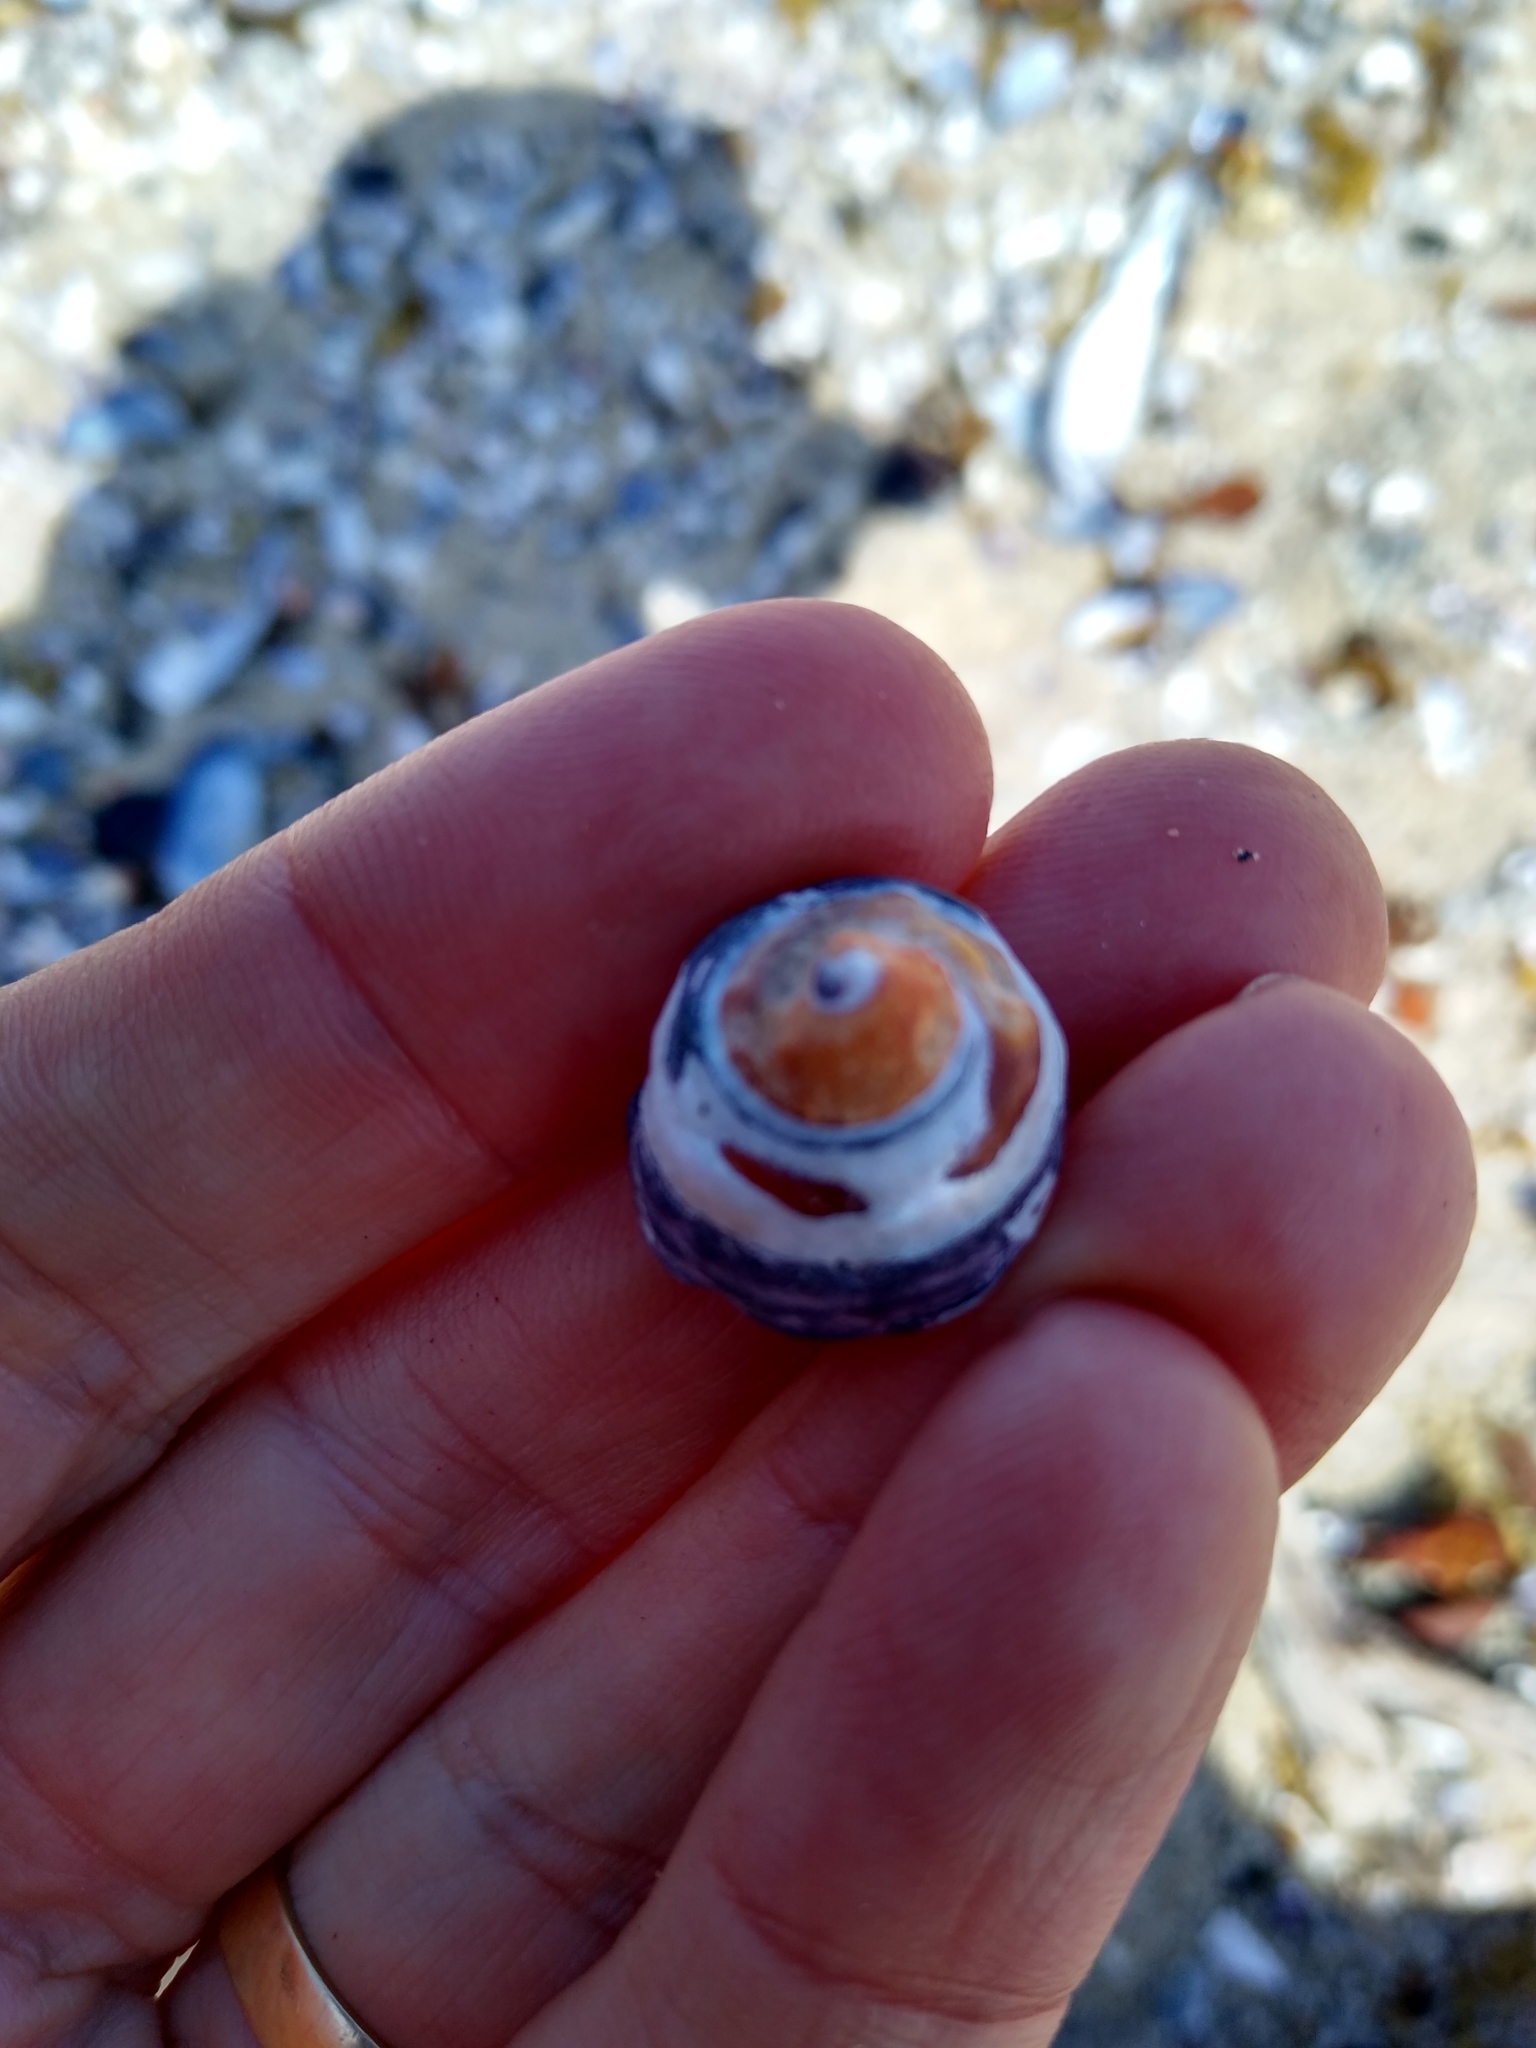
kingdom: Animalia
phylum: Mollusca
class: Gastropoda
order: Trochida
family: Tegulidae
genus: Tegula
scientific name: Tegula funebralis
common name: Black tegula
